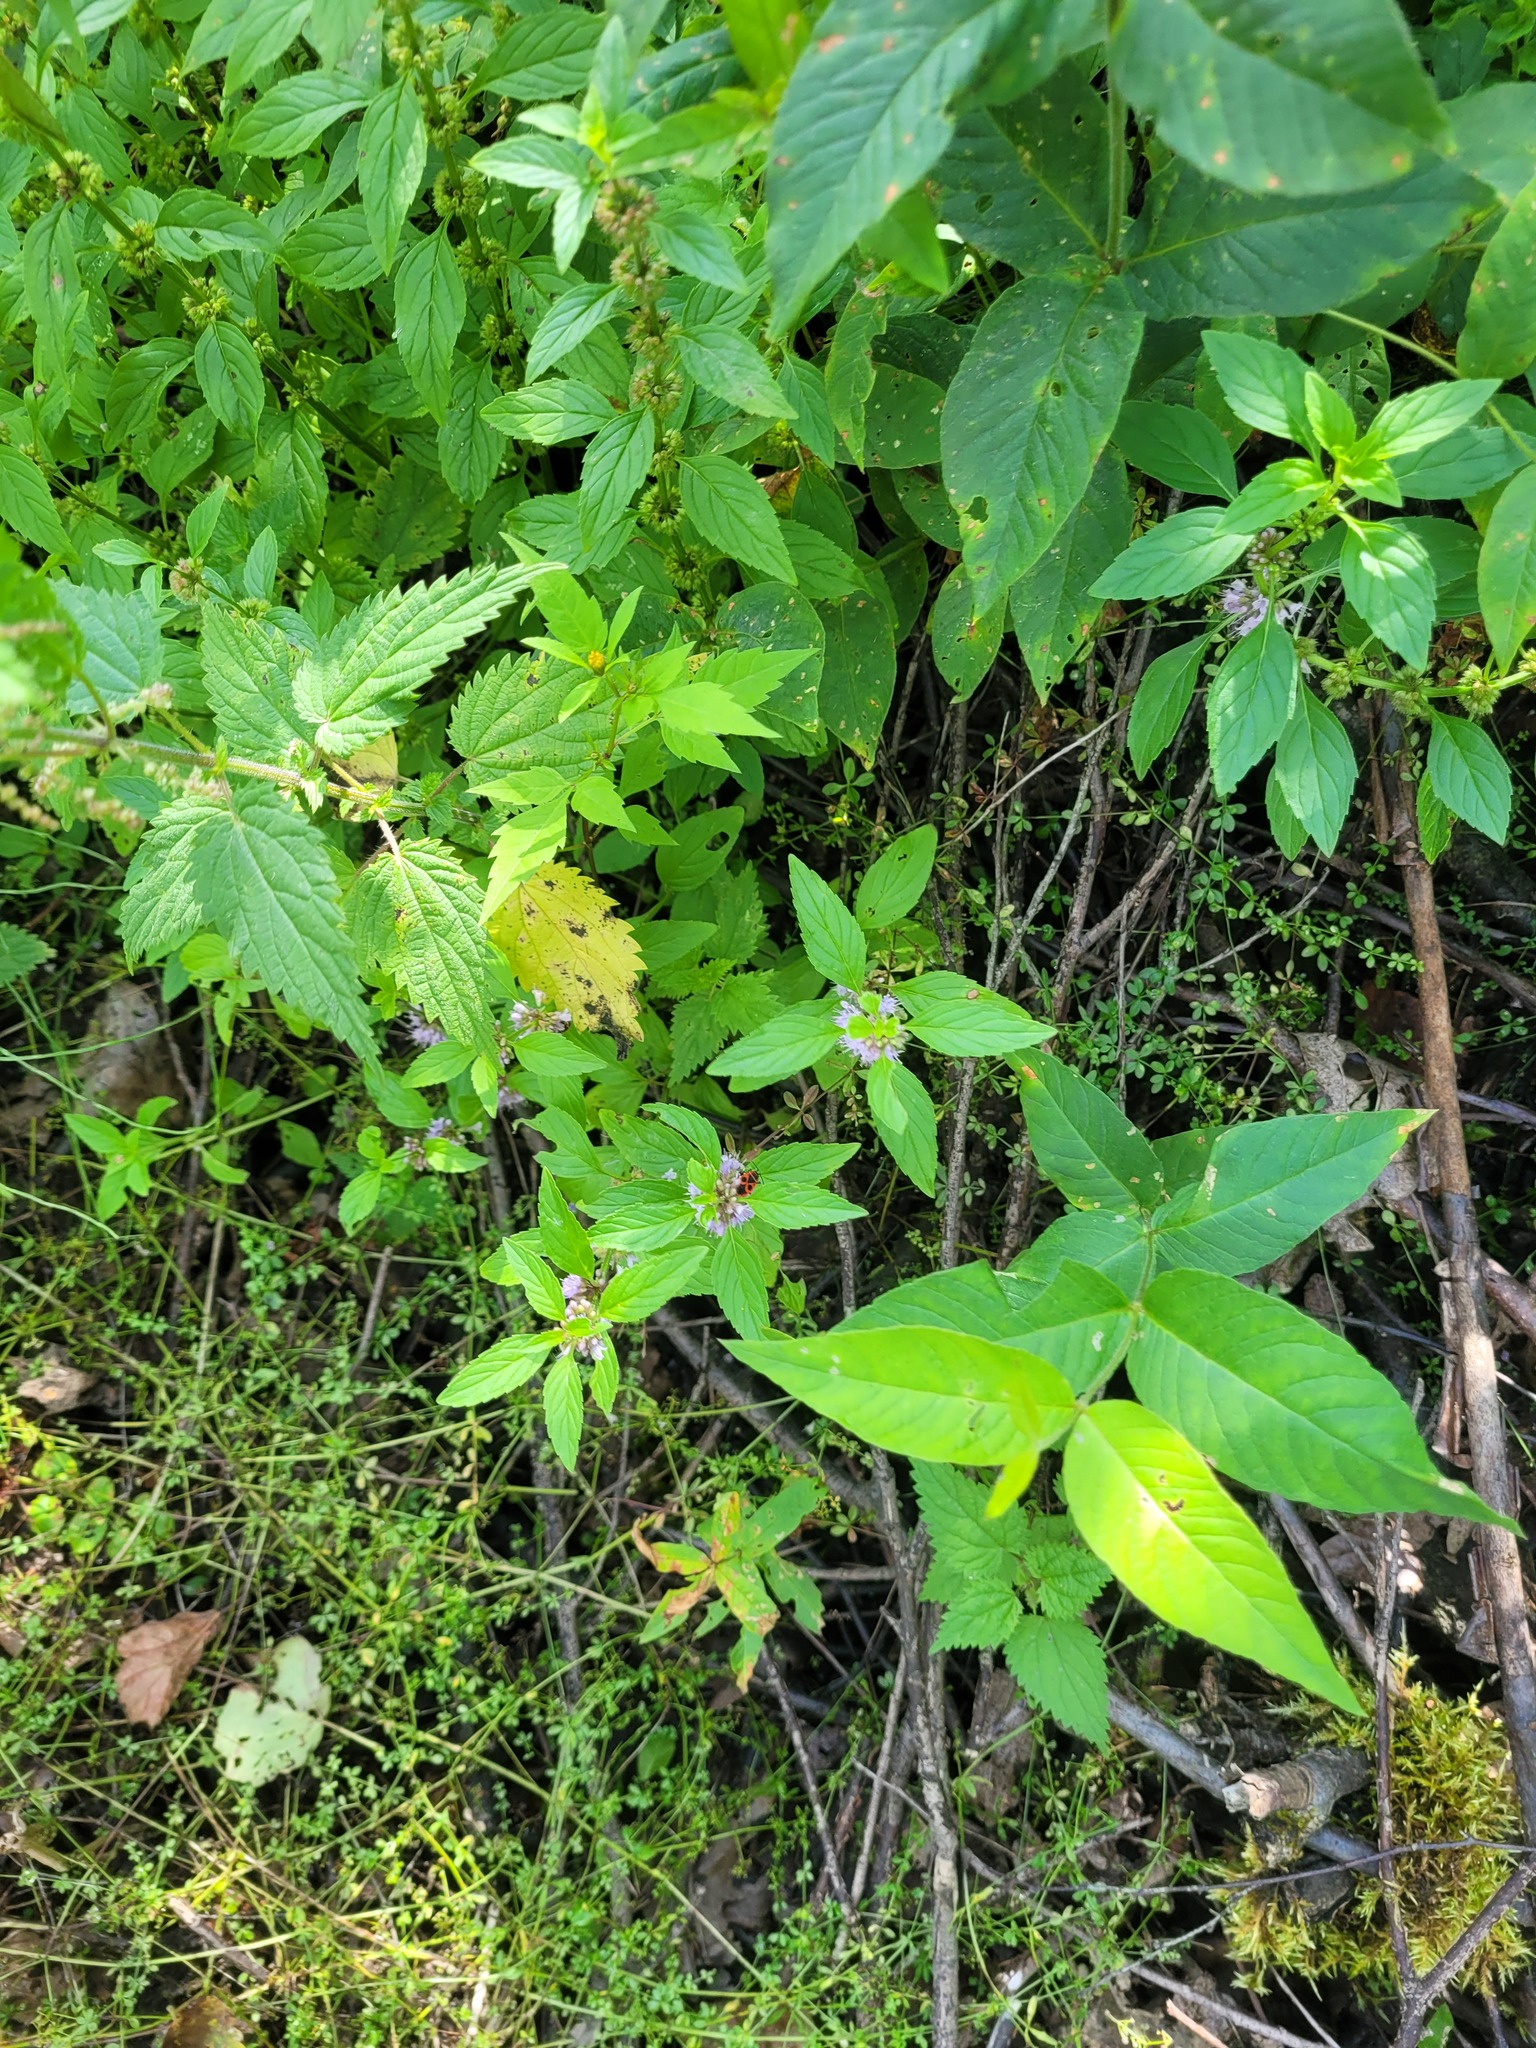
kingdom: Plantae
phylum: Tracheophyta
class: Magnoliopsida
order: Lamiales
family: Lamiaceae
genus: Mentha
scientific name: Mentha arvensis
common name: Corn mint
